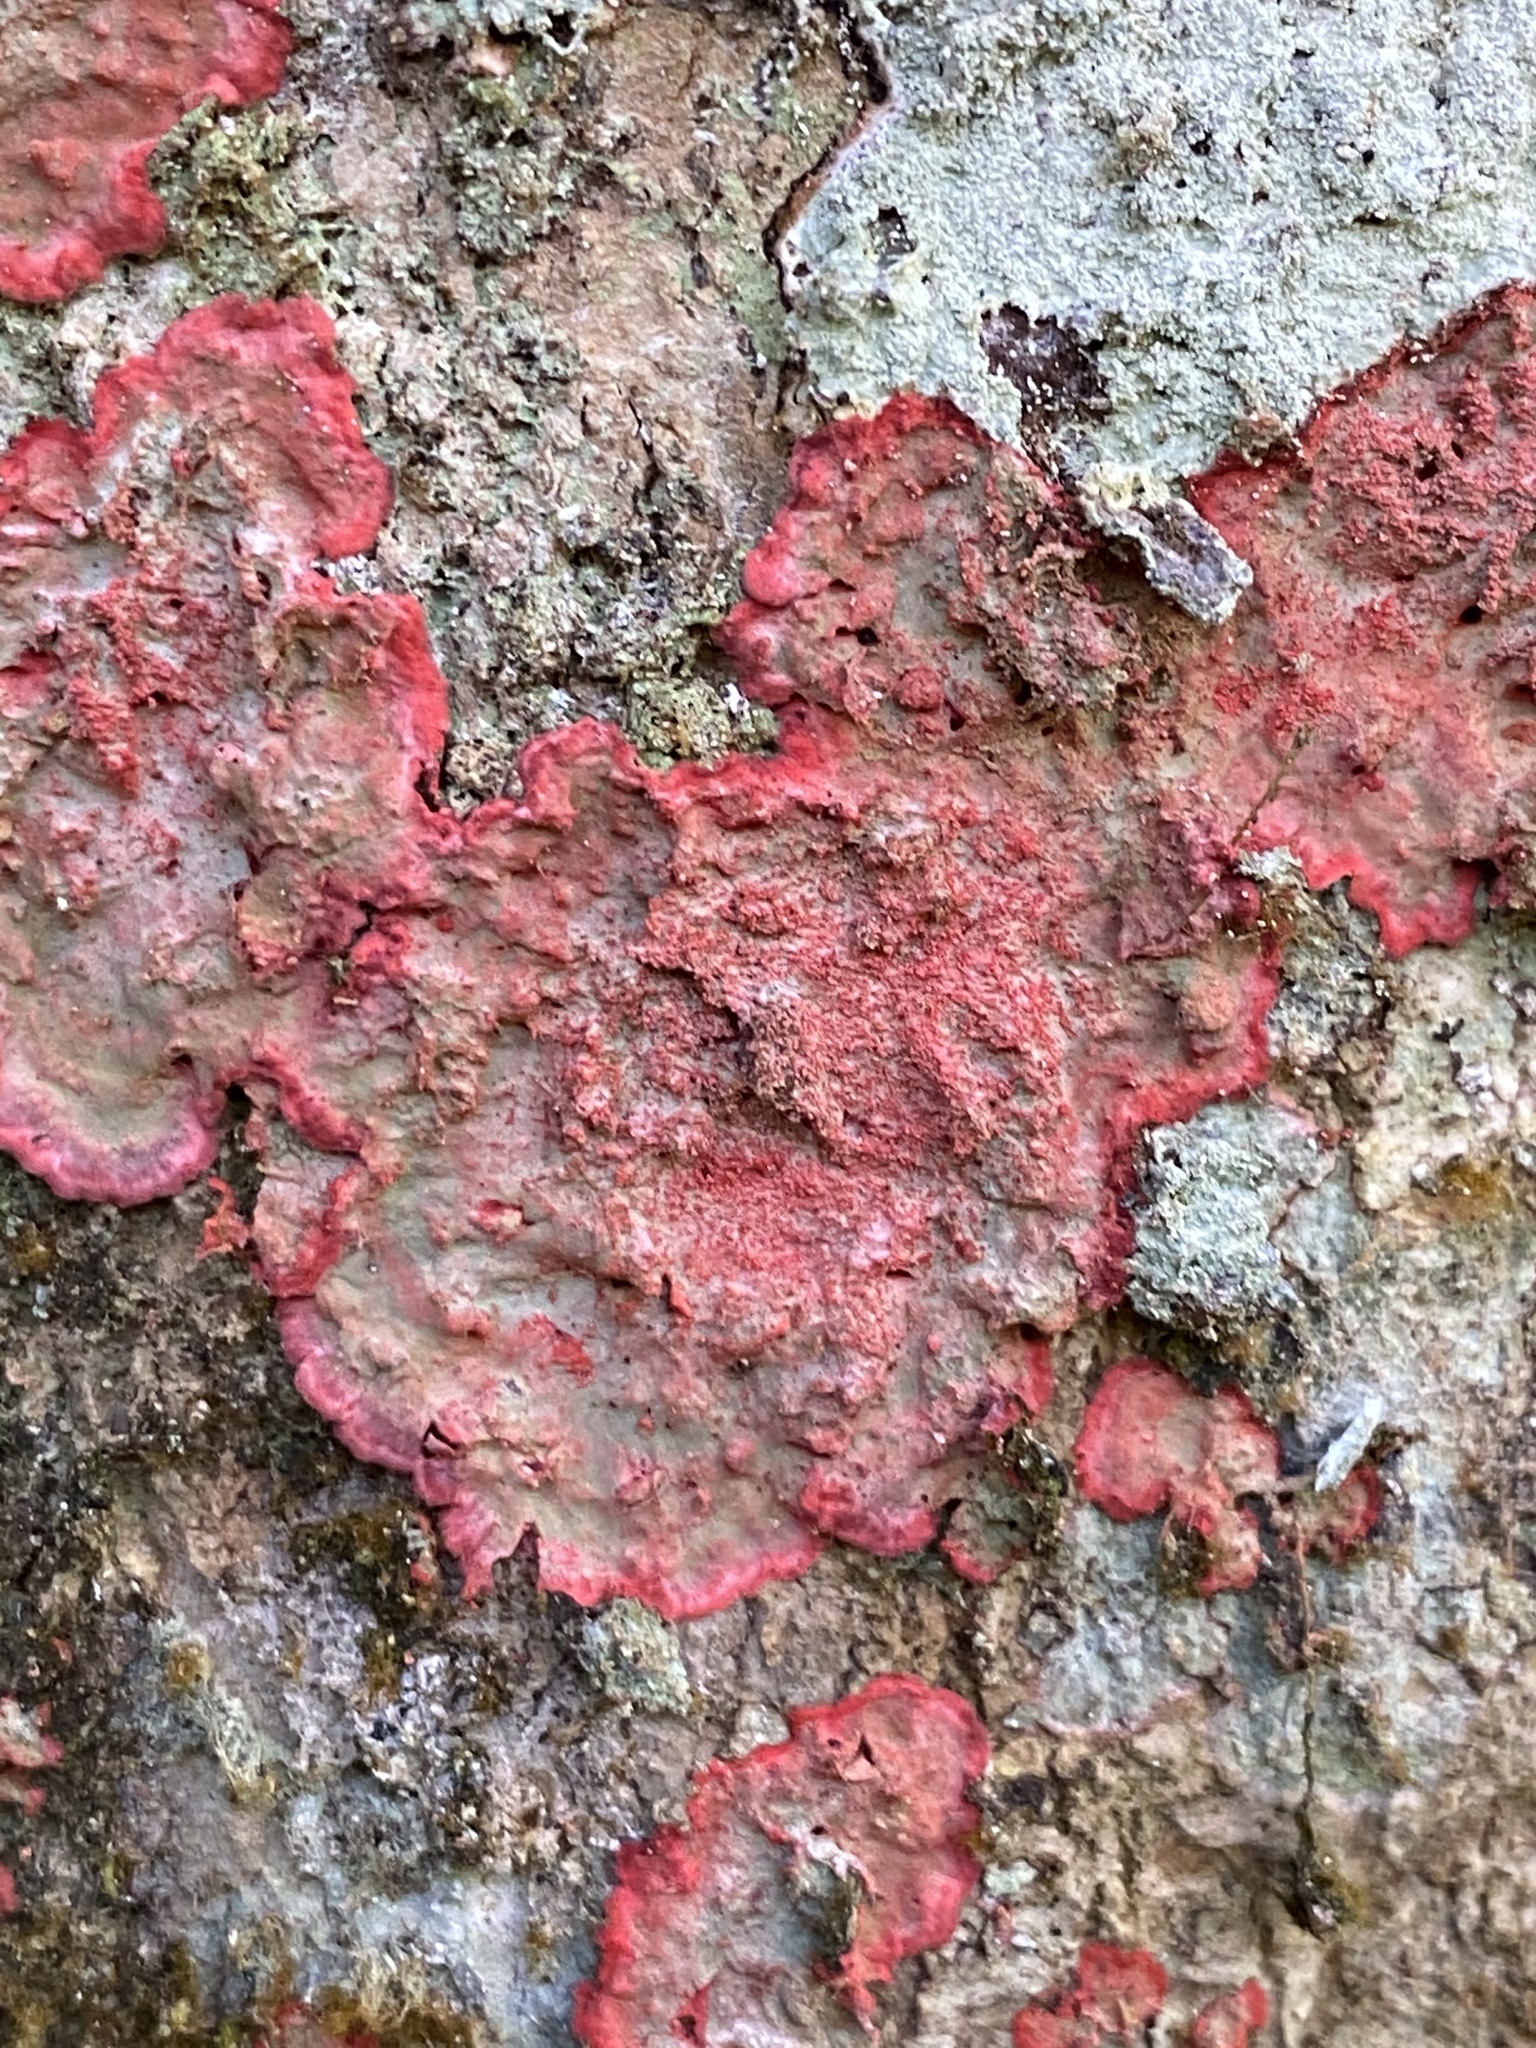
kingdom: Fungi
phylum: Ascomycota
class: Arthoniomycetes
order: Arthoniales
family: Arthoniaceae
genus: Herpothallon
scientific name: Herpothallon rubrocinctum
